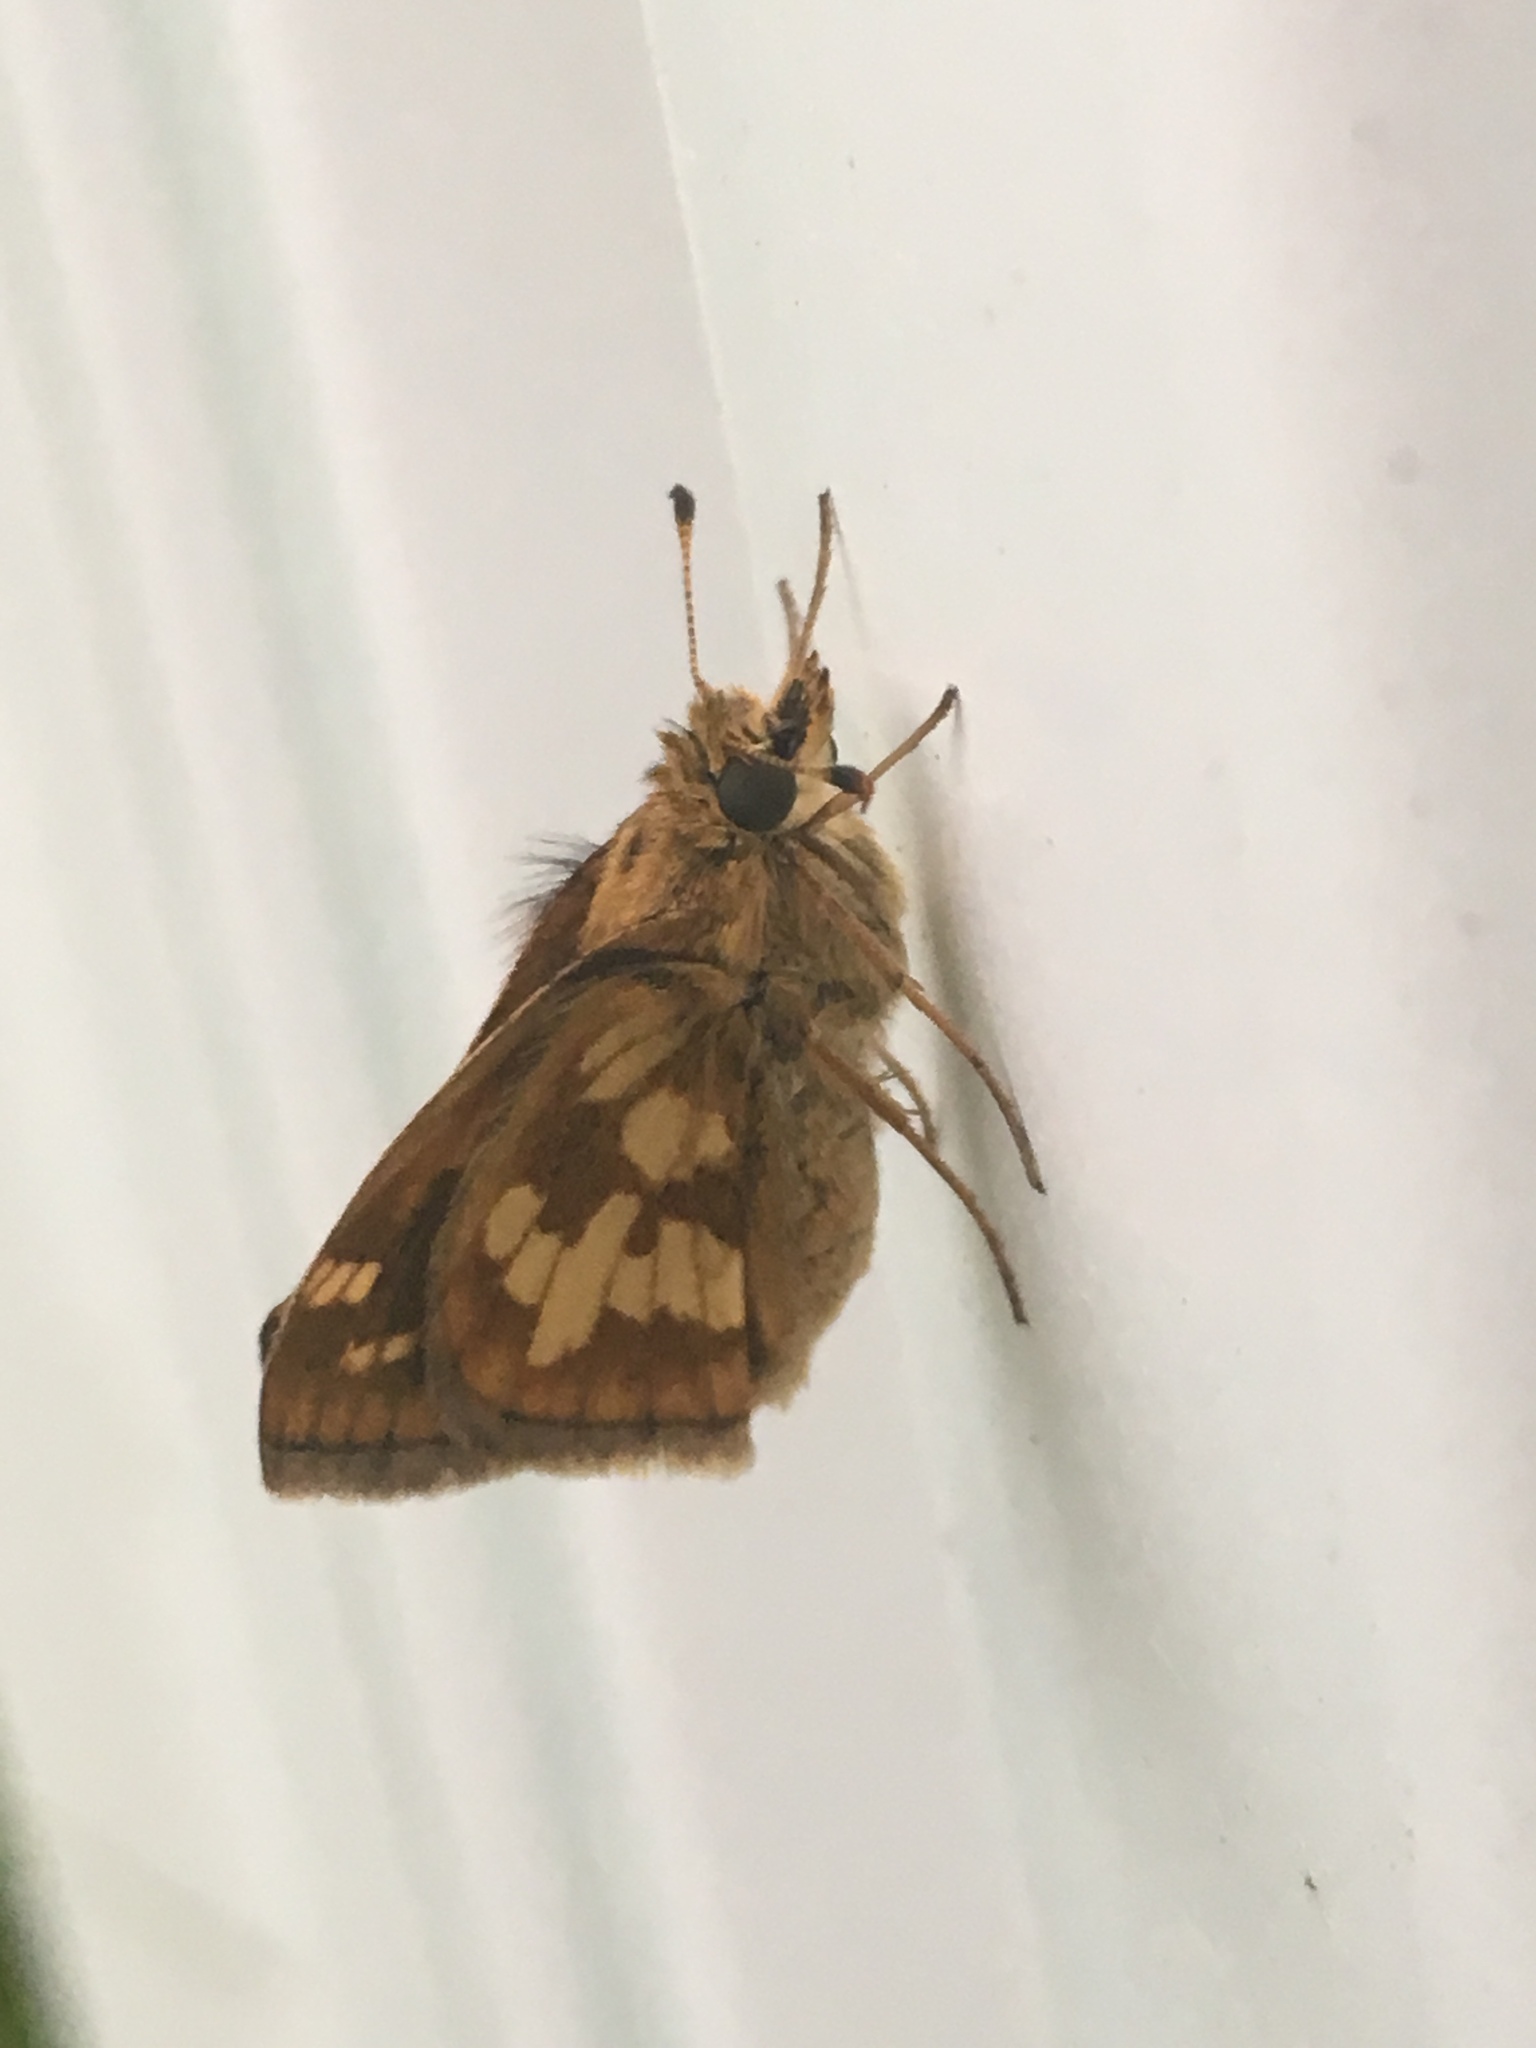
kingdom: Animalia
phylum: Arthropoda
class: Insecta
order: Lepidoptera
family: Hesperiidae
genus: Polites
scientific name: Polites coras
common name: Peck's skipper
